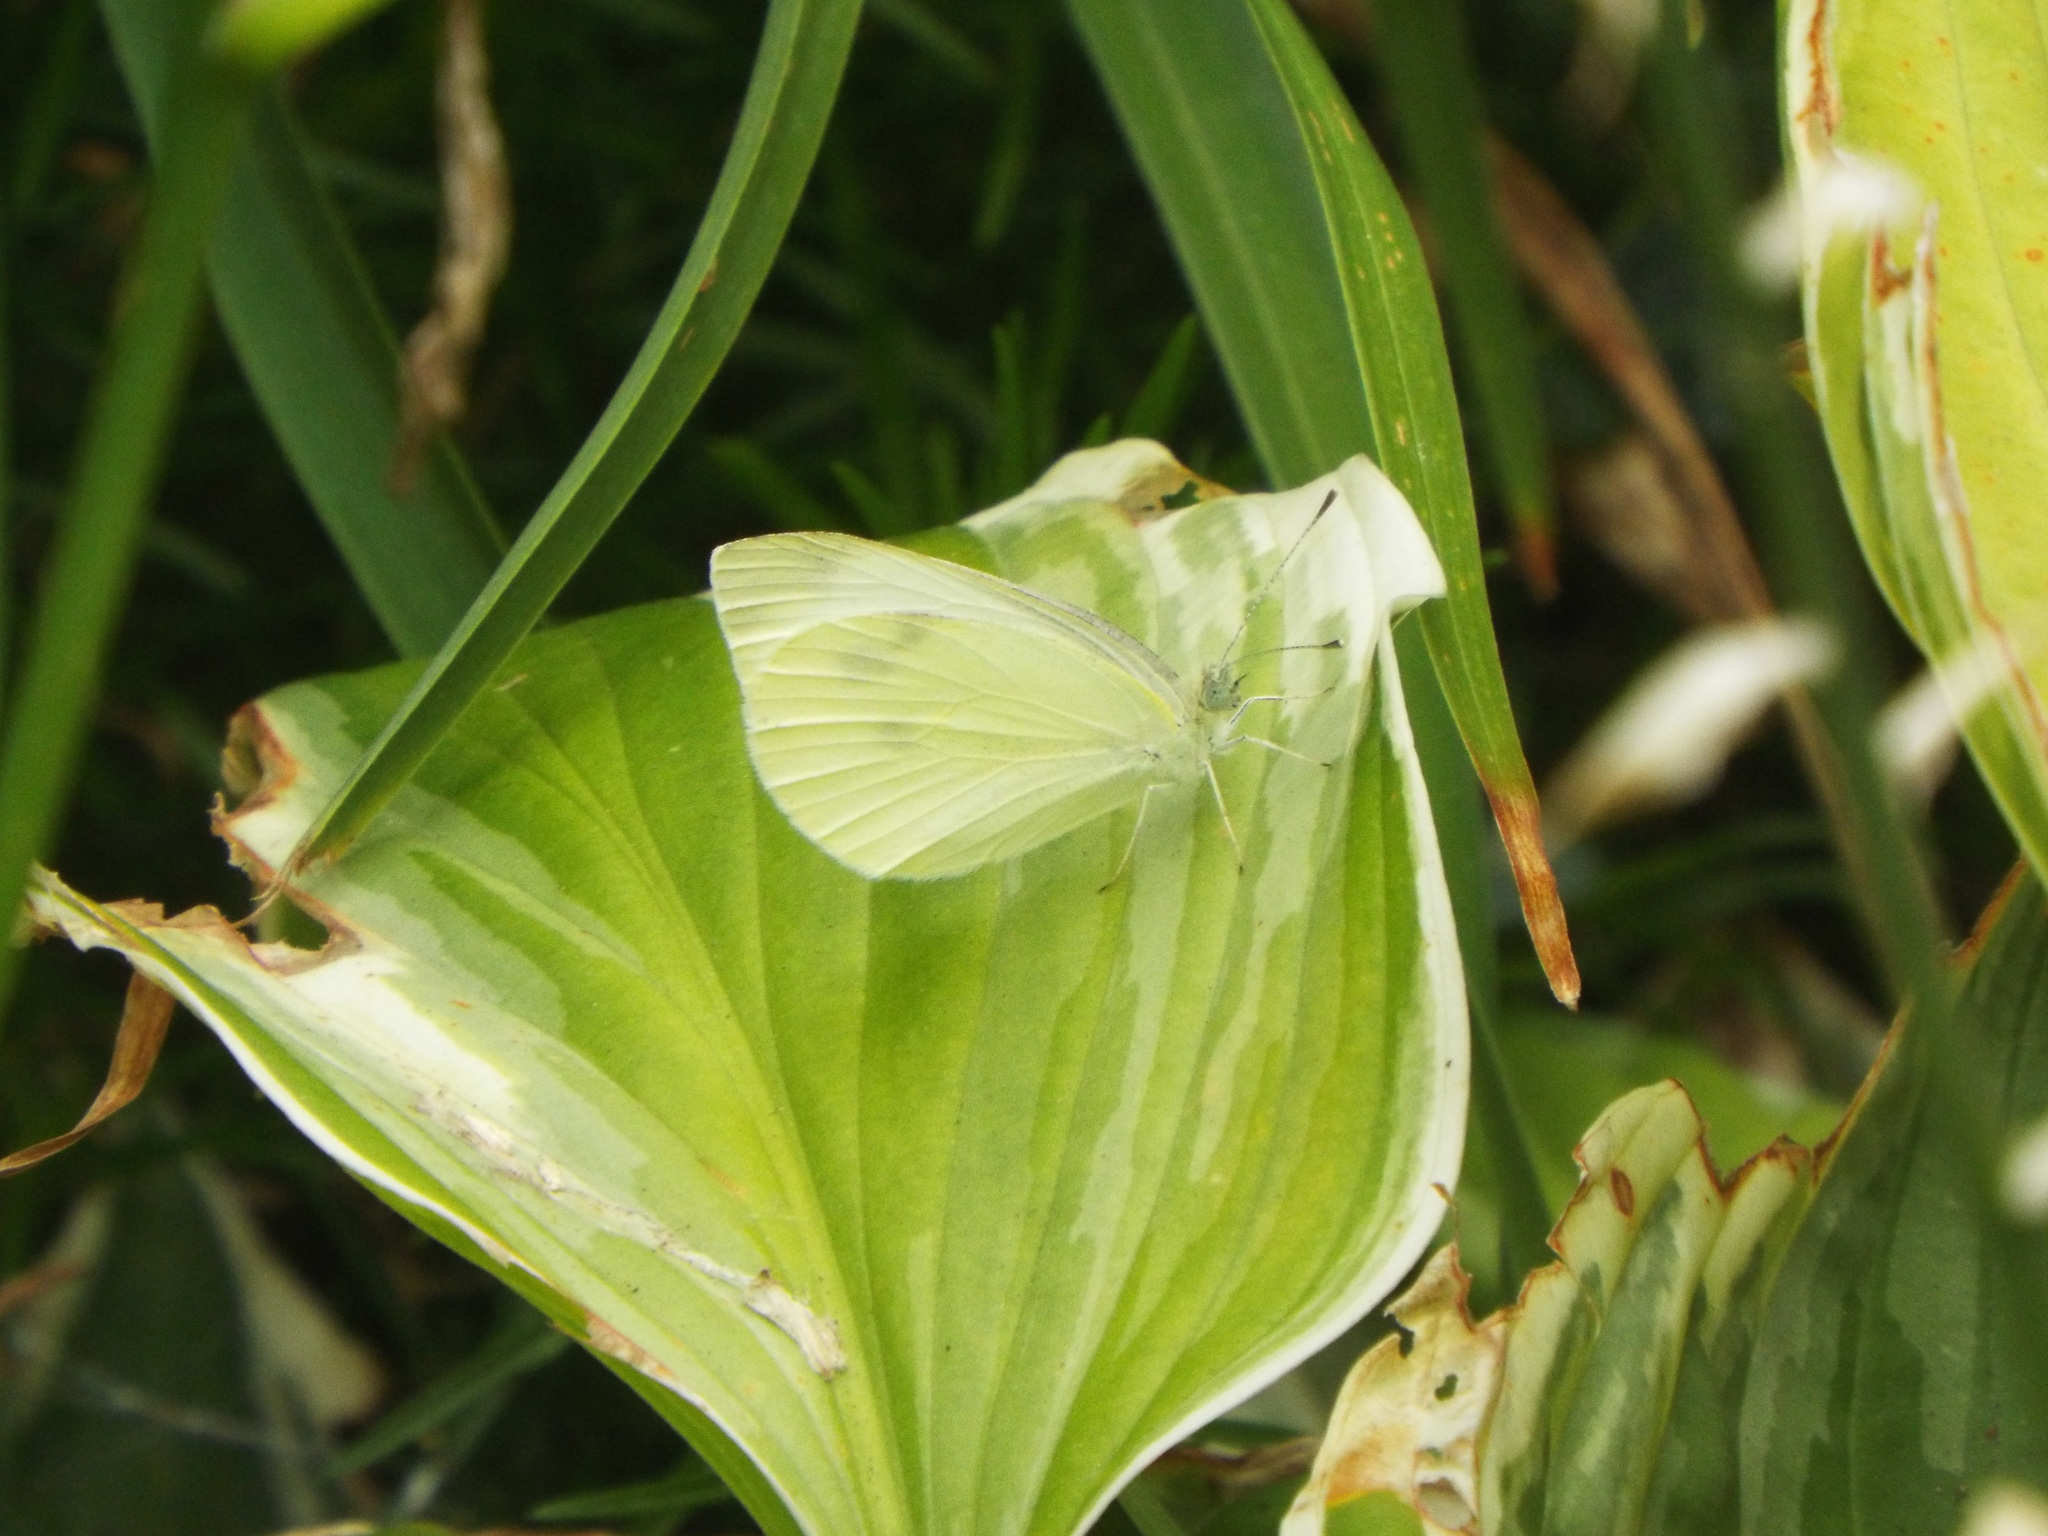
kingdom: Animalia
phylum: Arthropoda
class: Insecta
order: Lepidoptera
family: Pieridae
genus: Pieris
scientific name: Pieris rapae
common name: Small white
